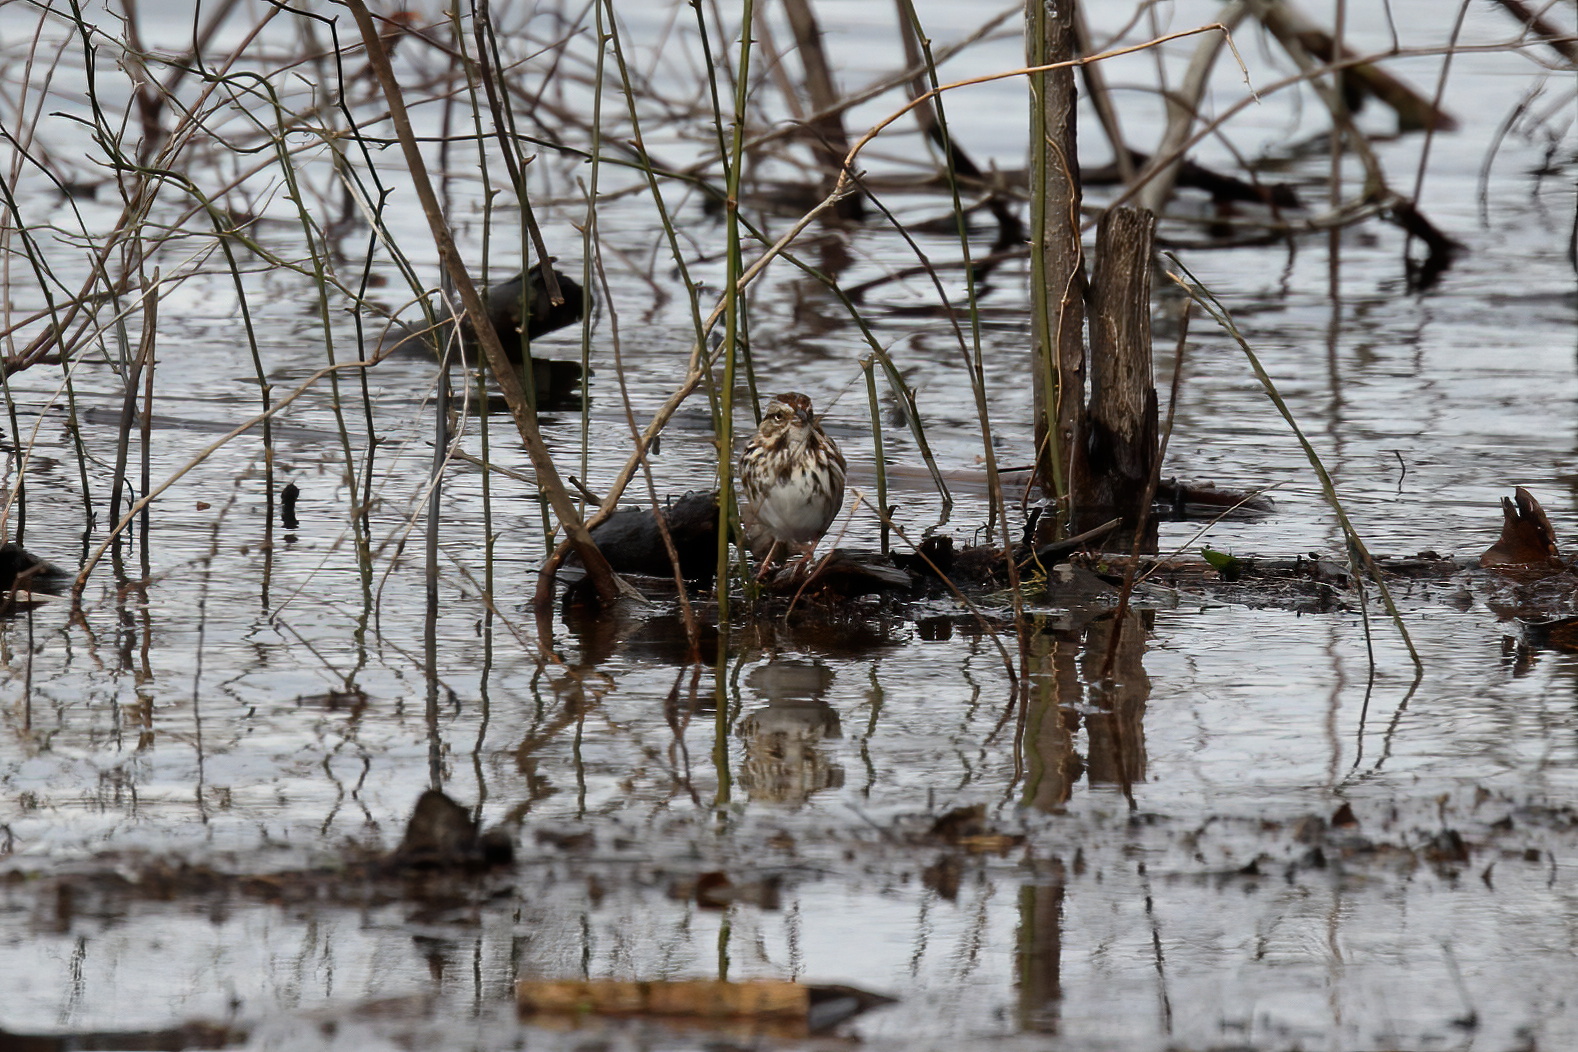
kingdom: Animalia
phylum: Chordata
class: Aves
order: Passeriformes
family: Passerellidae
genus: Melospiza
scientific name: Melospiza melodia
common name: Song sparrow
